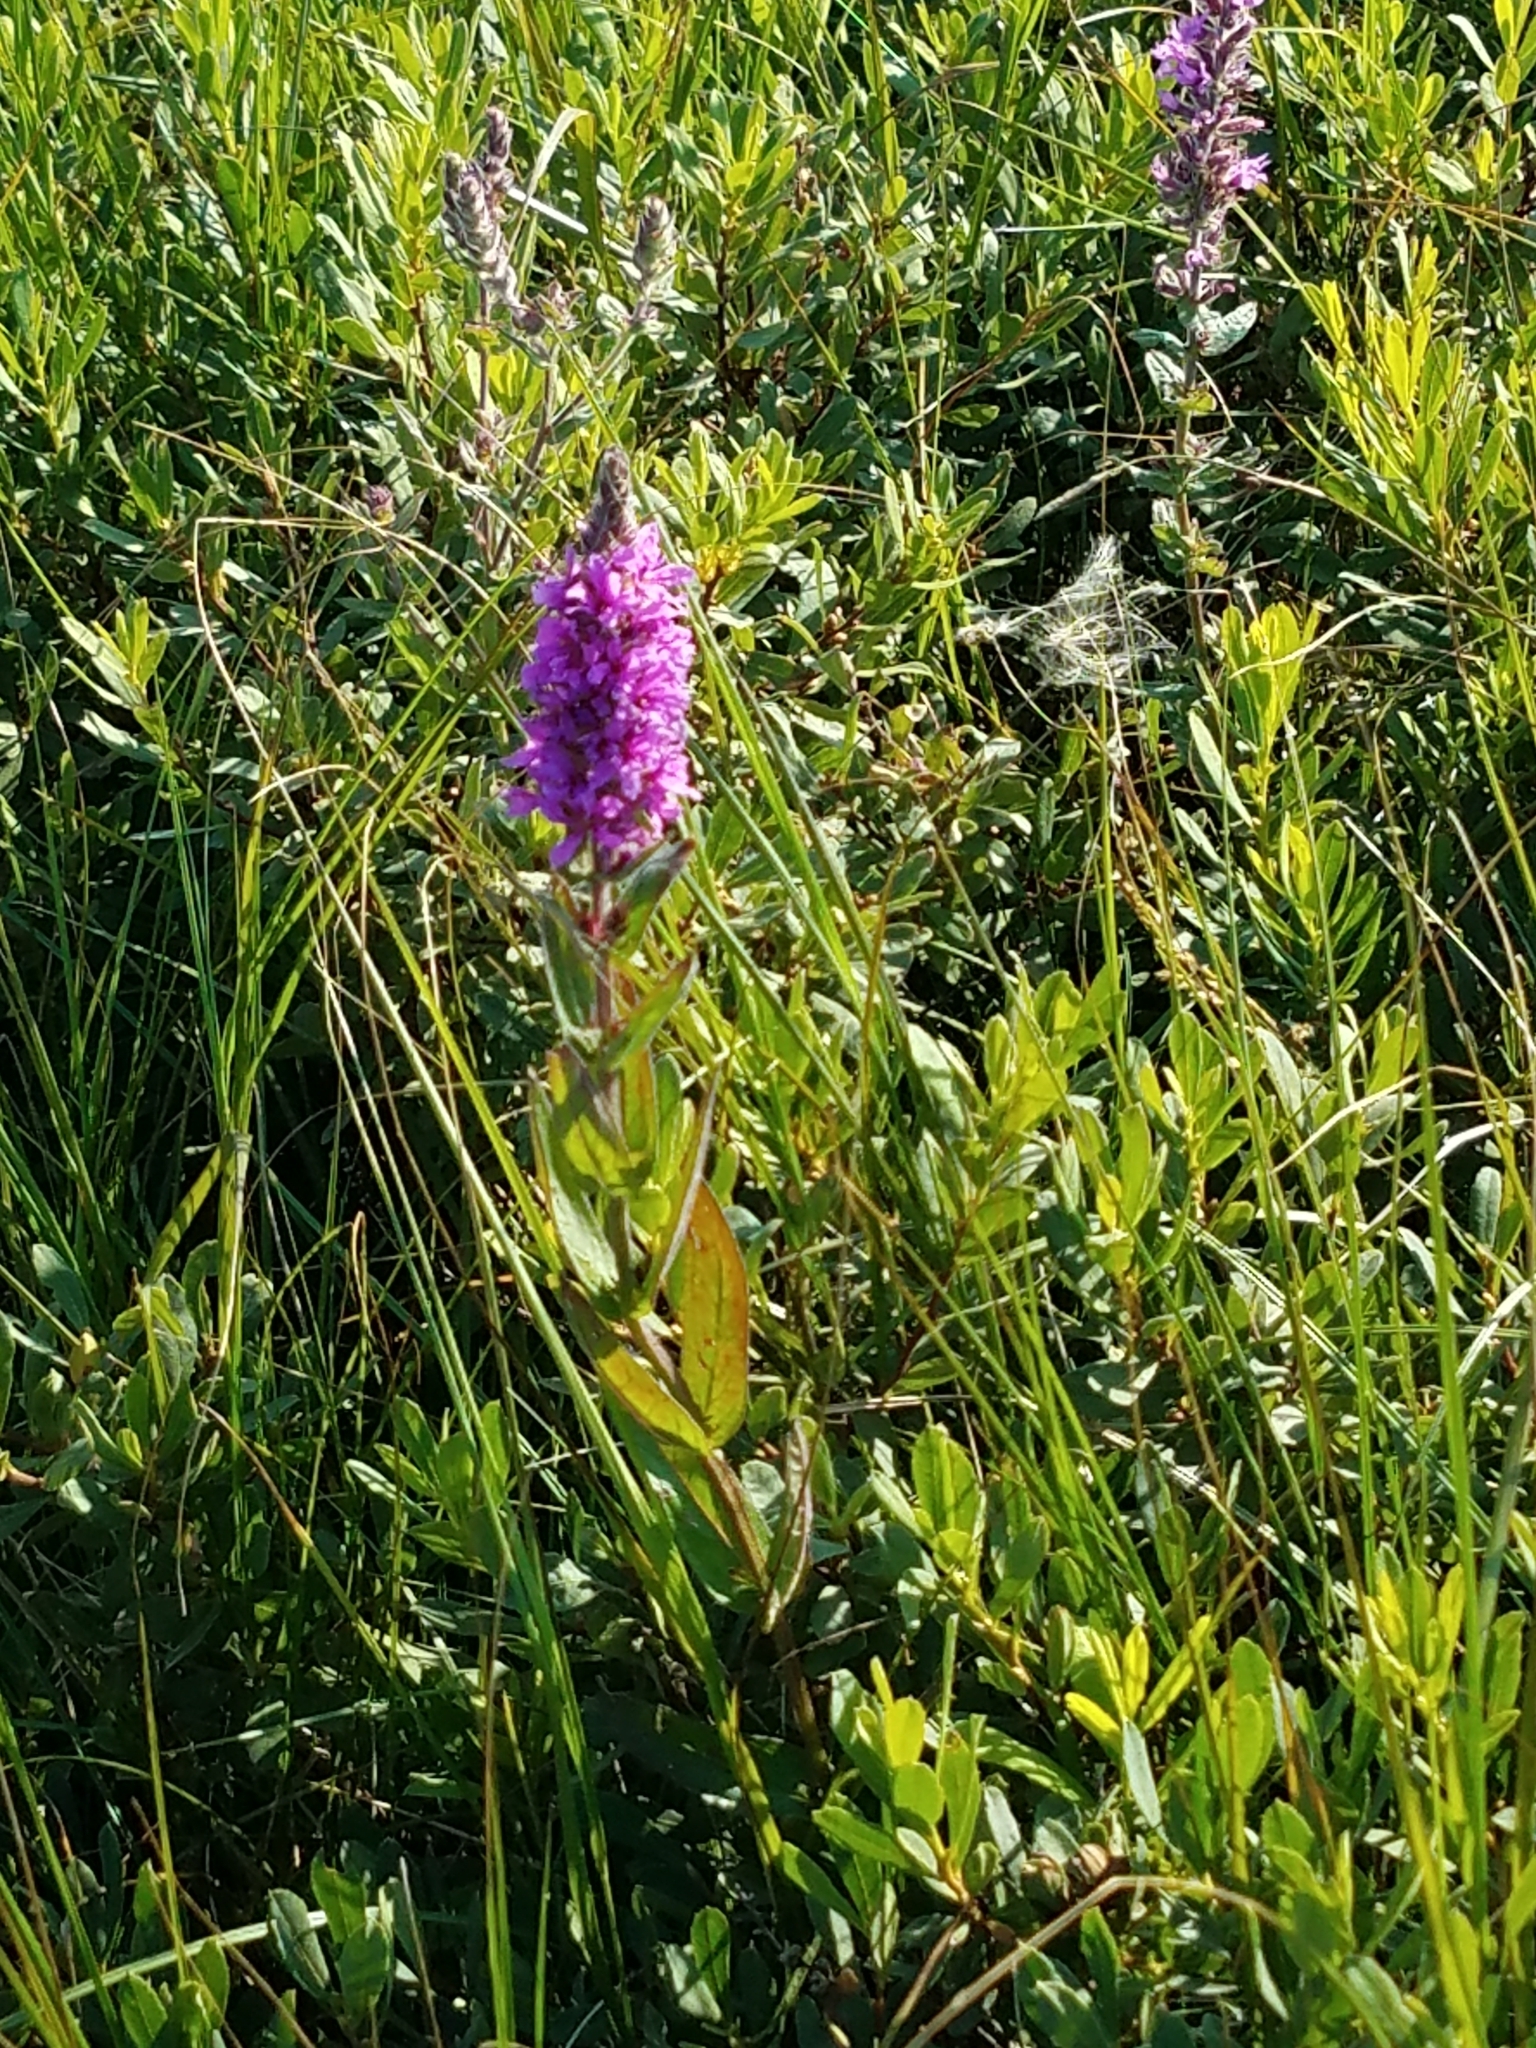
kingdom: Plantae
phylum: Tracheophyta
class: Magnoliopsida
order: Myrtales
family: Lythraceae
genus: Lythrum
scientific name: Lythrum salicaria
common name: Purple loosestrife
